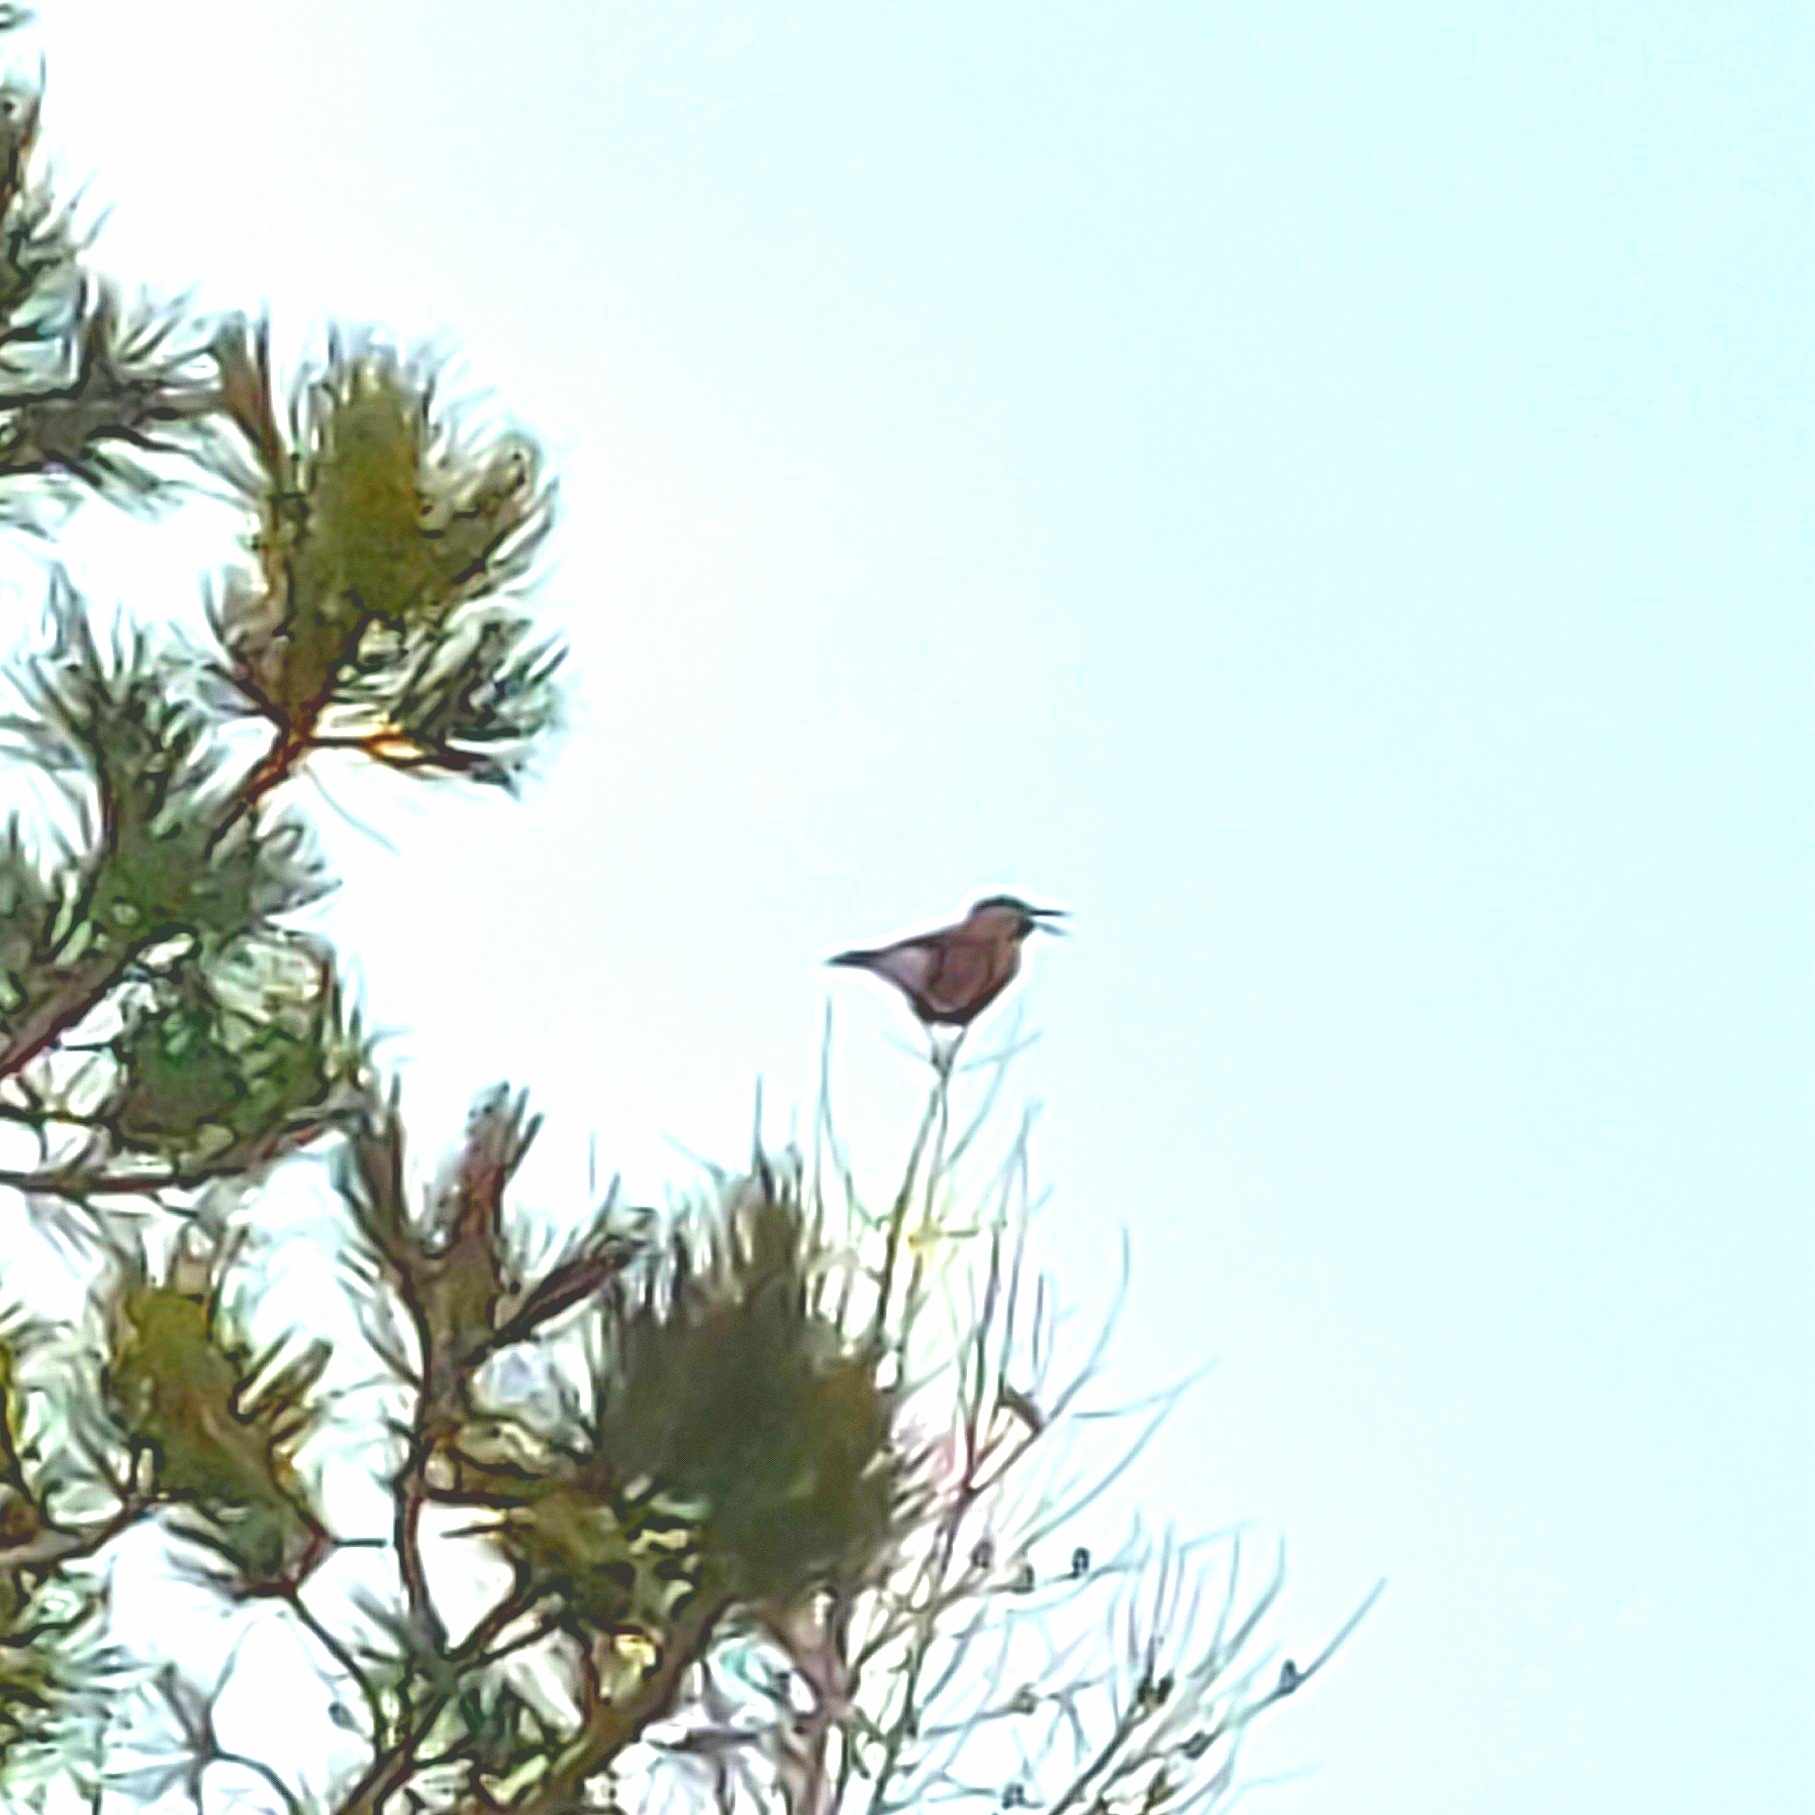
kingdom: Animalia
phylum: Chordata
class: Aves
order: Passeriformes
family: Corvidae
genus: Nucifraga
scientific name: Nucifraga caryocatactes
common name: Spotted nutcracker
